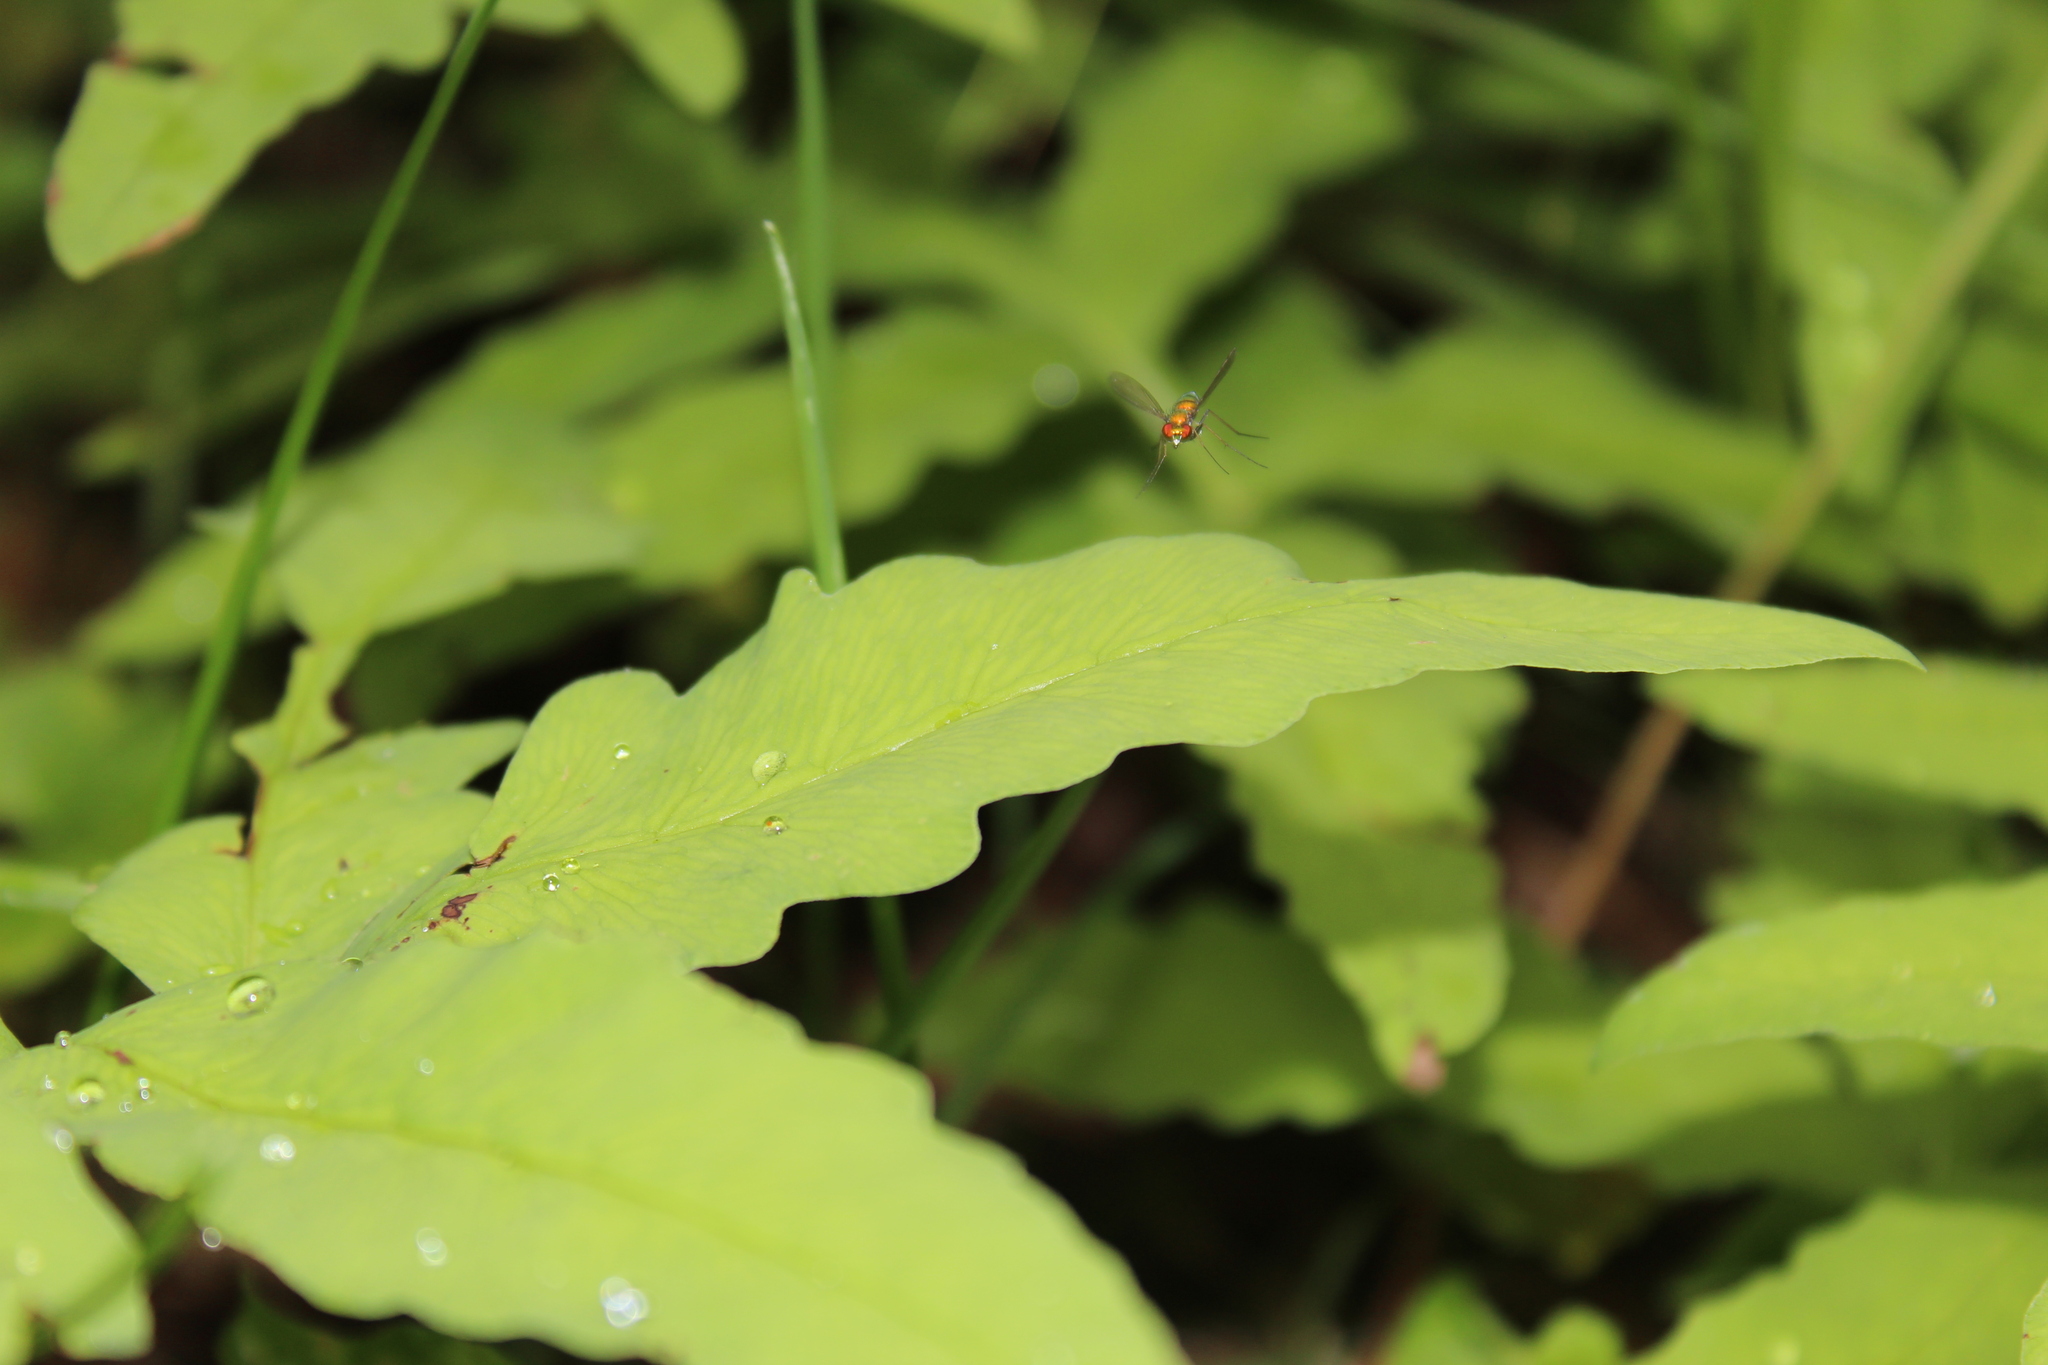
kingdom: Animalia
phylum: Arthropoda
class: Insecta
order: Diptera
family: Dolichopodidae
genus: Condylostylus
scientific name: Condylostylus
